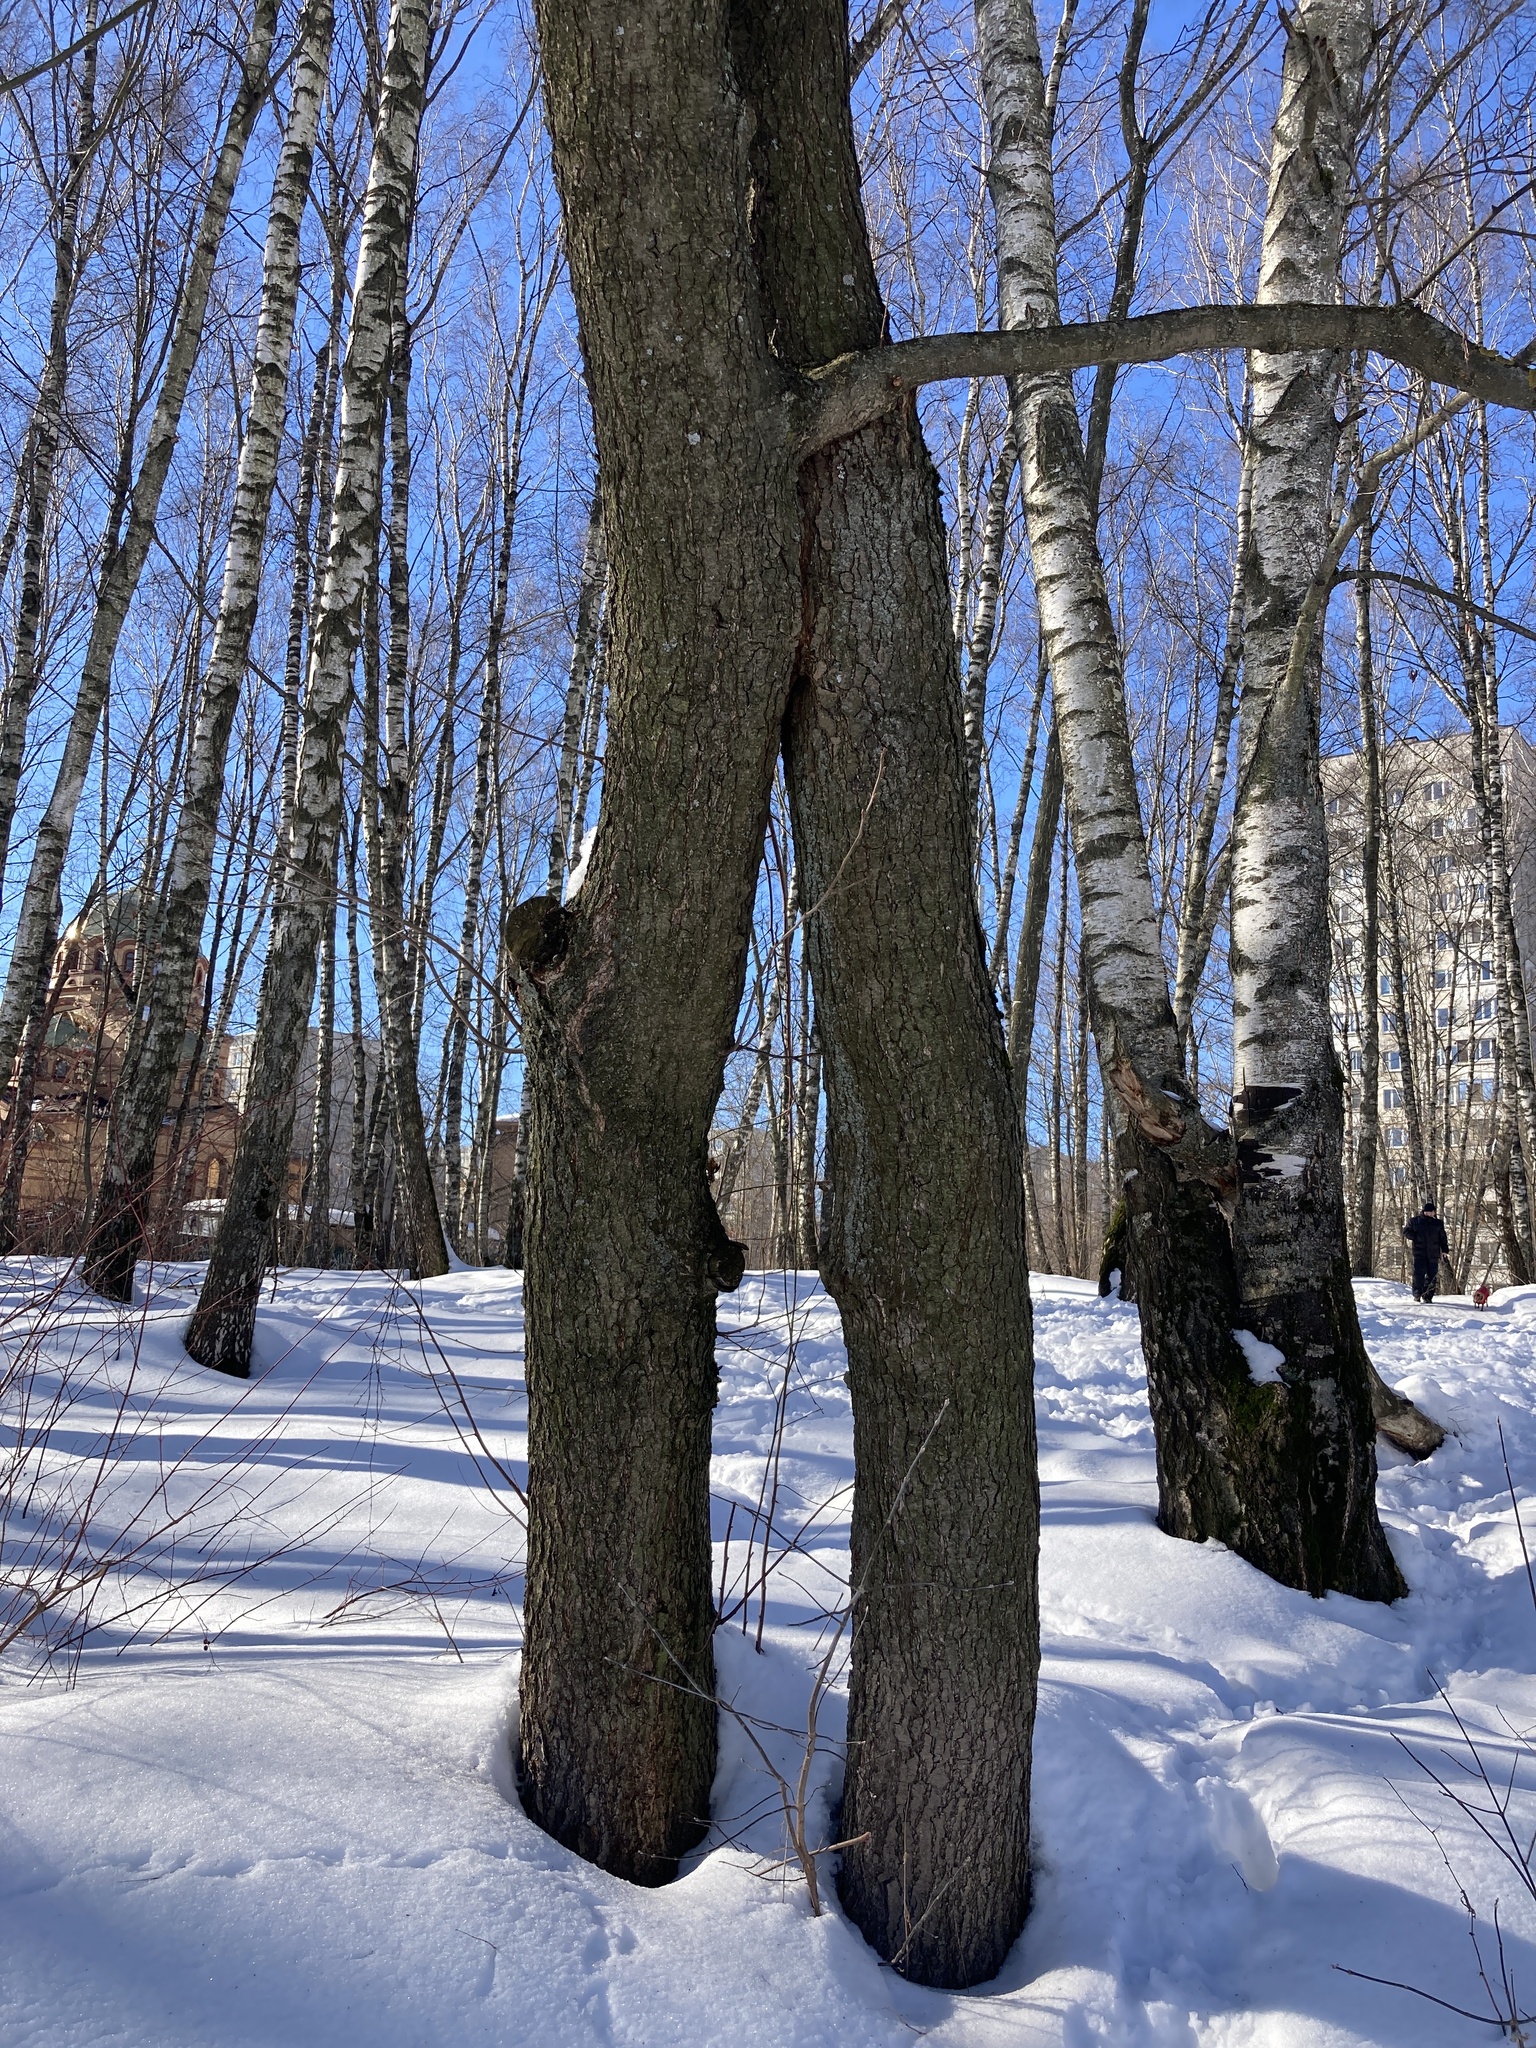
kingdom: Plantae
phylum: Tracheophyta
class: Magnoliopsida
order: Fagales
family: Betulaceae
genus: Alnus
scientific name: Alnus glutinosa
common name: Black alder
